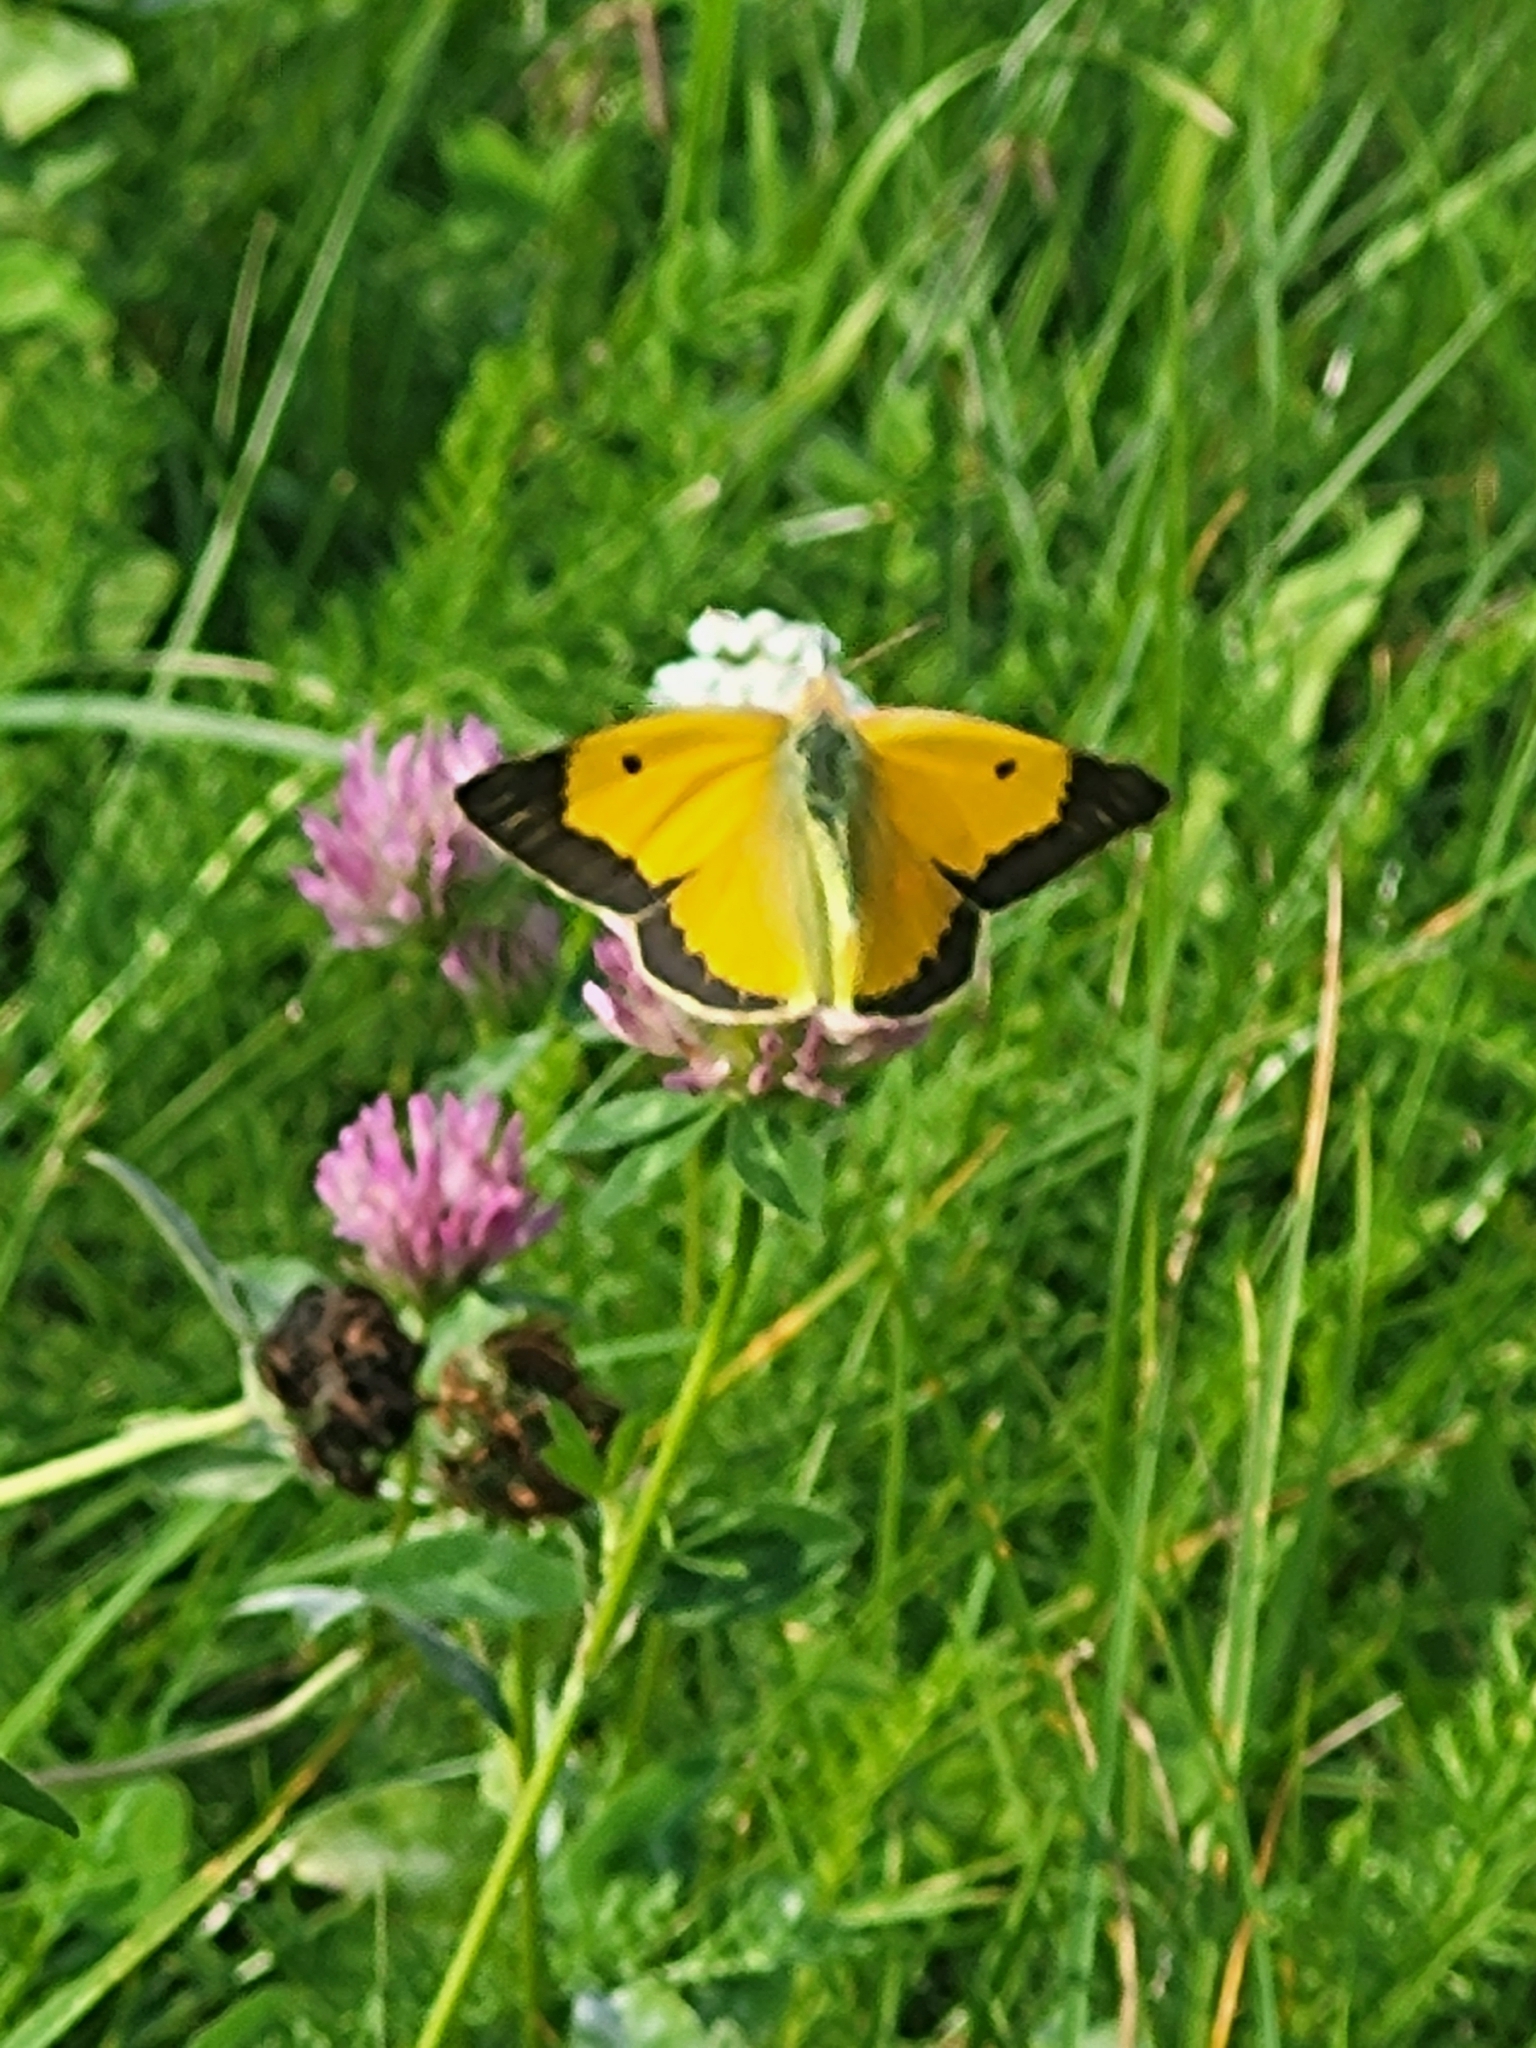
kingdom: Animalia
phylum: Arthropoda
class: Insecta
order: Lepidoptera
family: Pieridae
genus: Colias
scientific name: Colias croceus
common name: Clouded yellow
